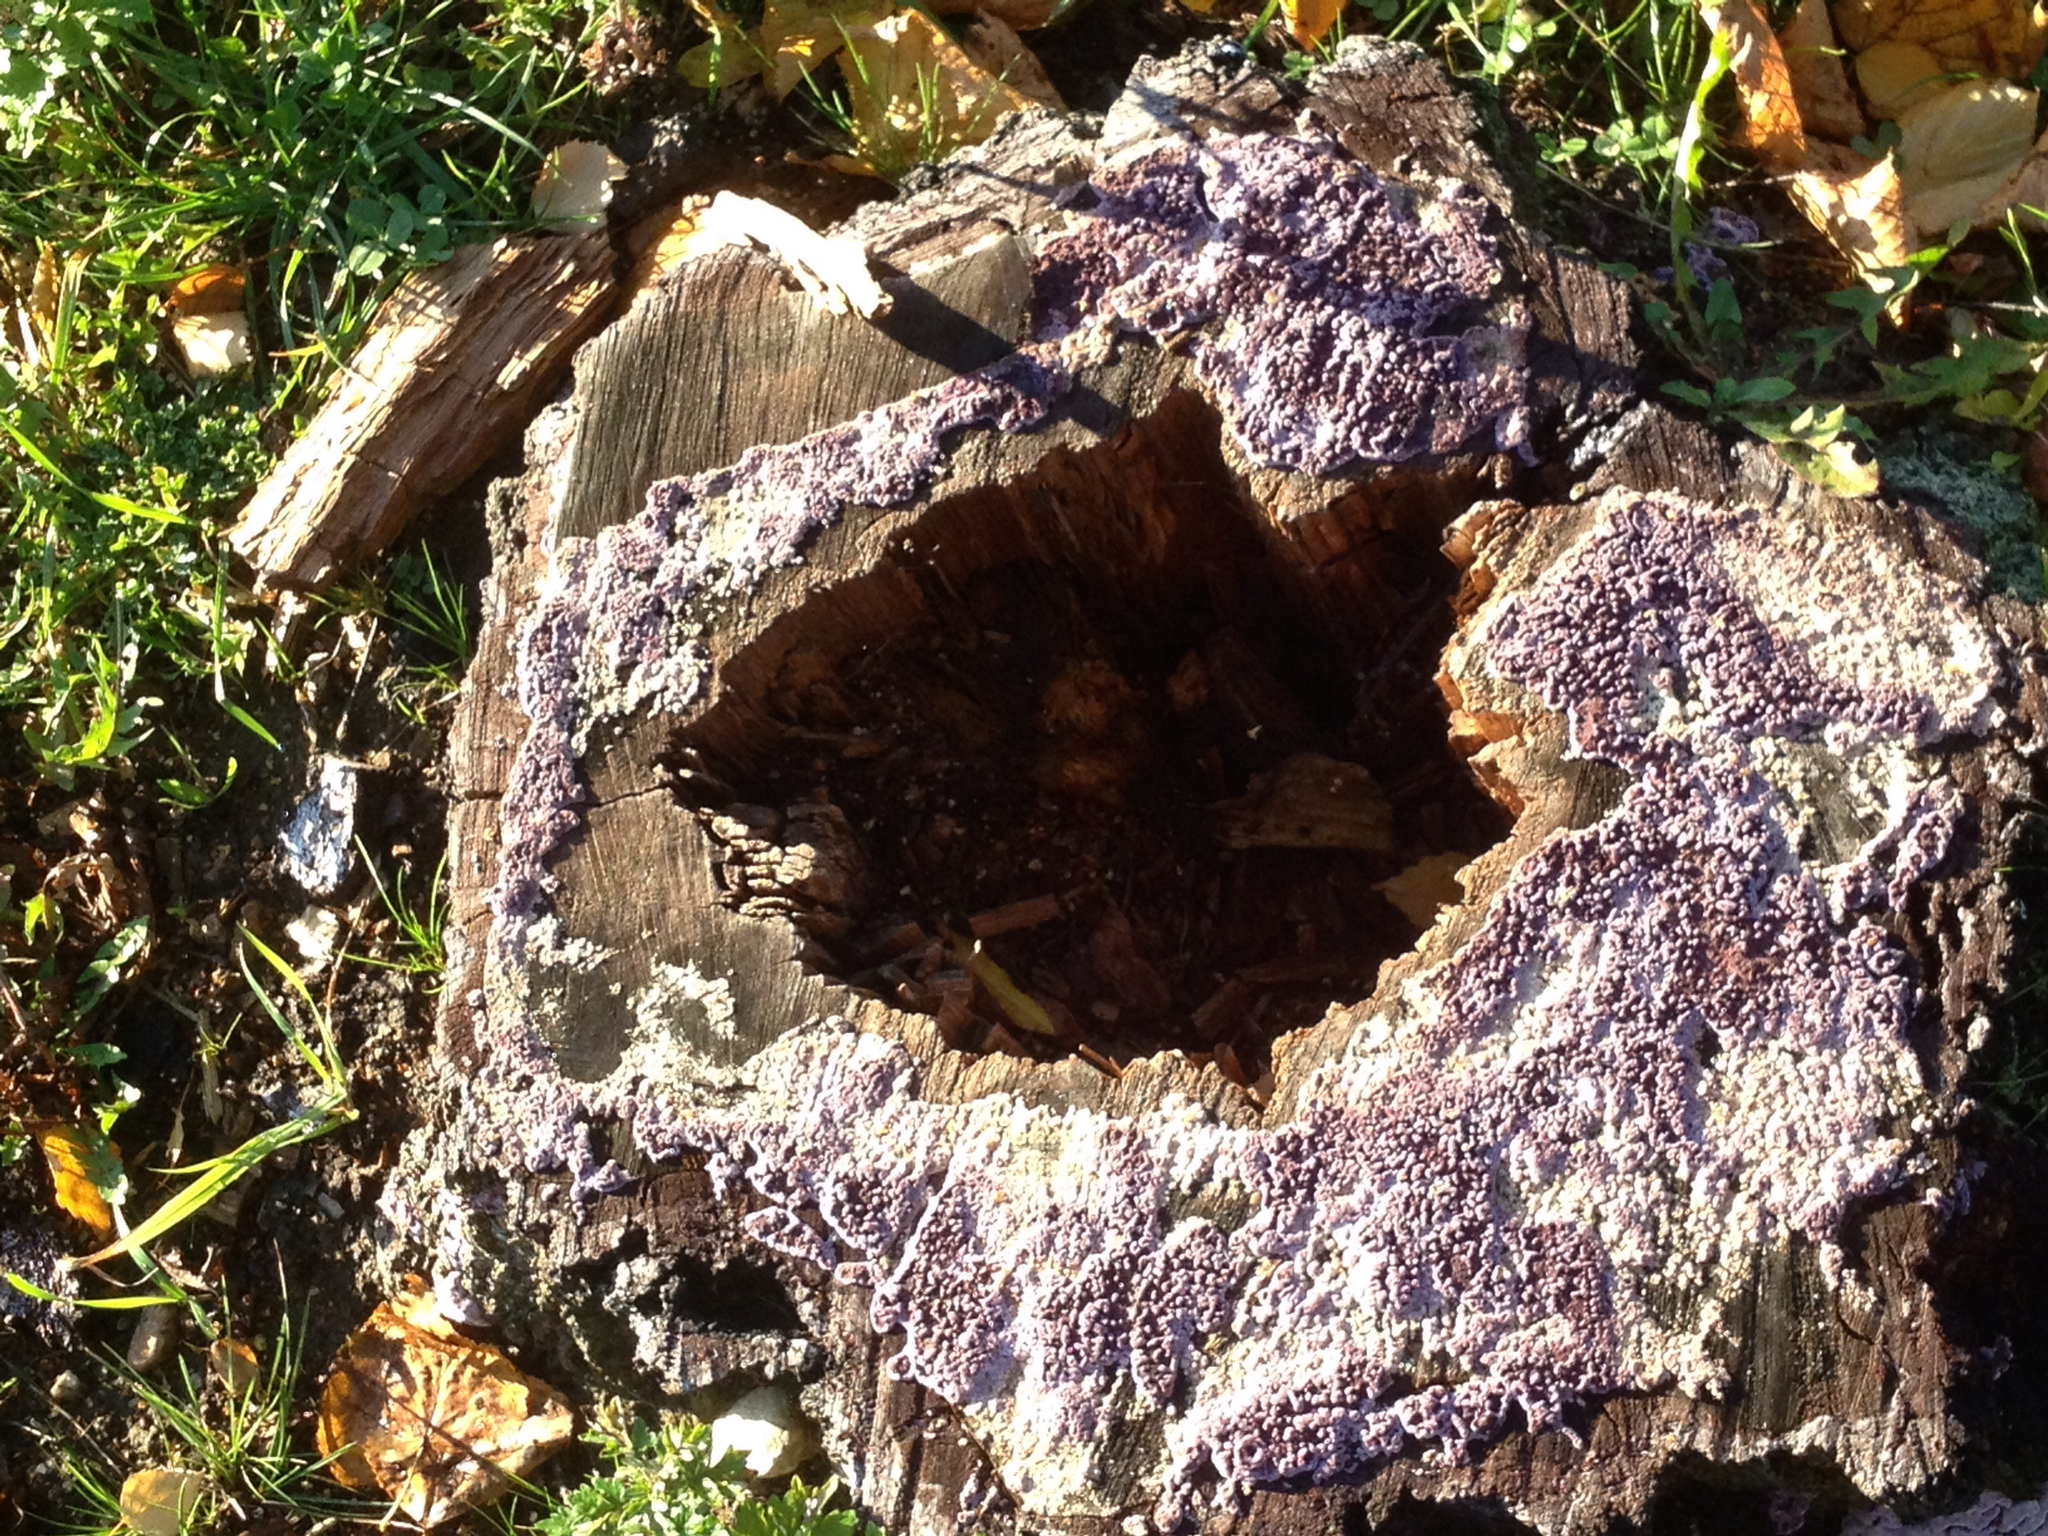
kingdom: Fungi
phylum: Basidiomycota
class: Agaricomycetes
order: Agaricales
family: Cyphellaceae
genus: Chondrostereum
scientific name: Chondrostereum purpureum
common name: Silver leaf disease
